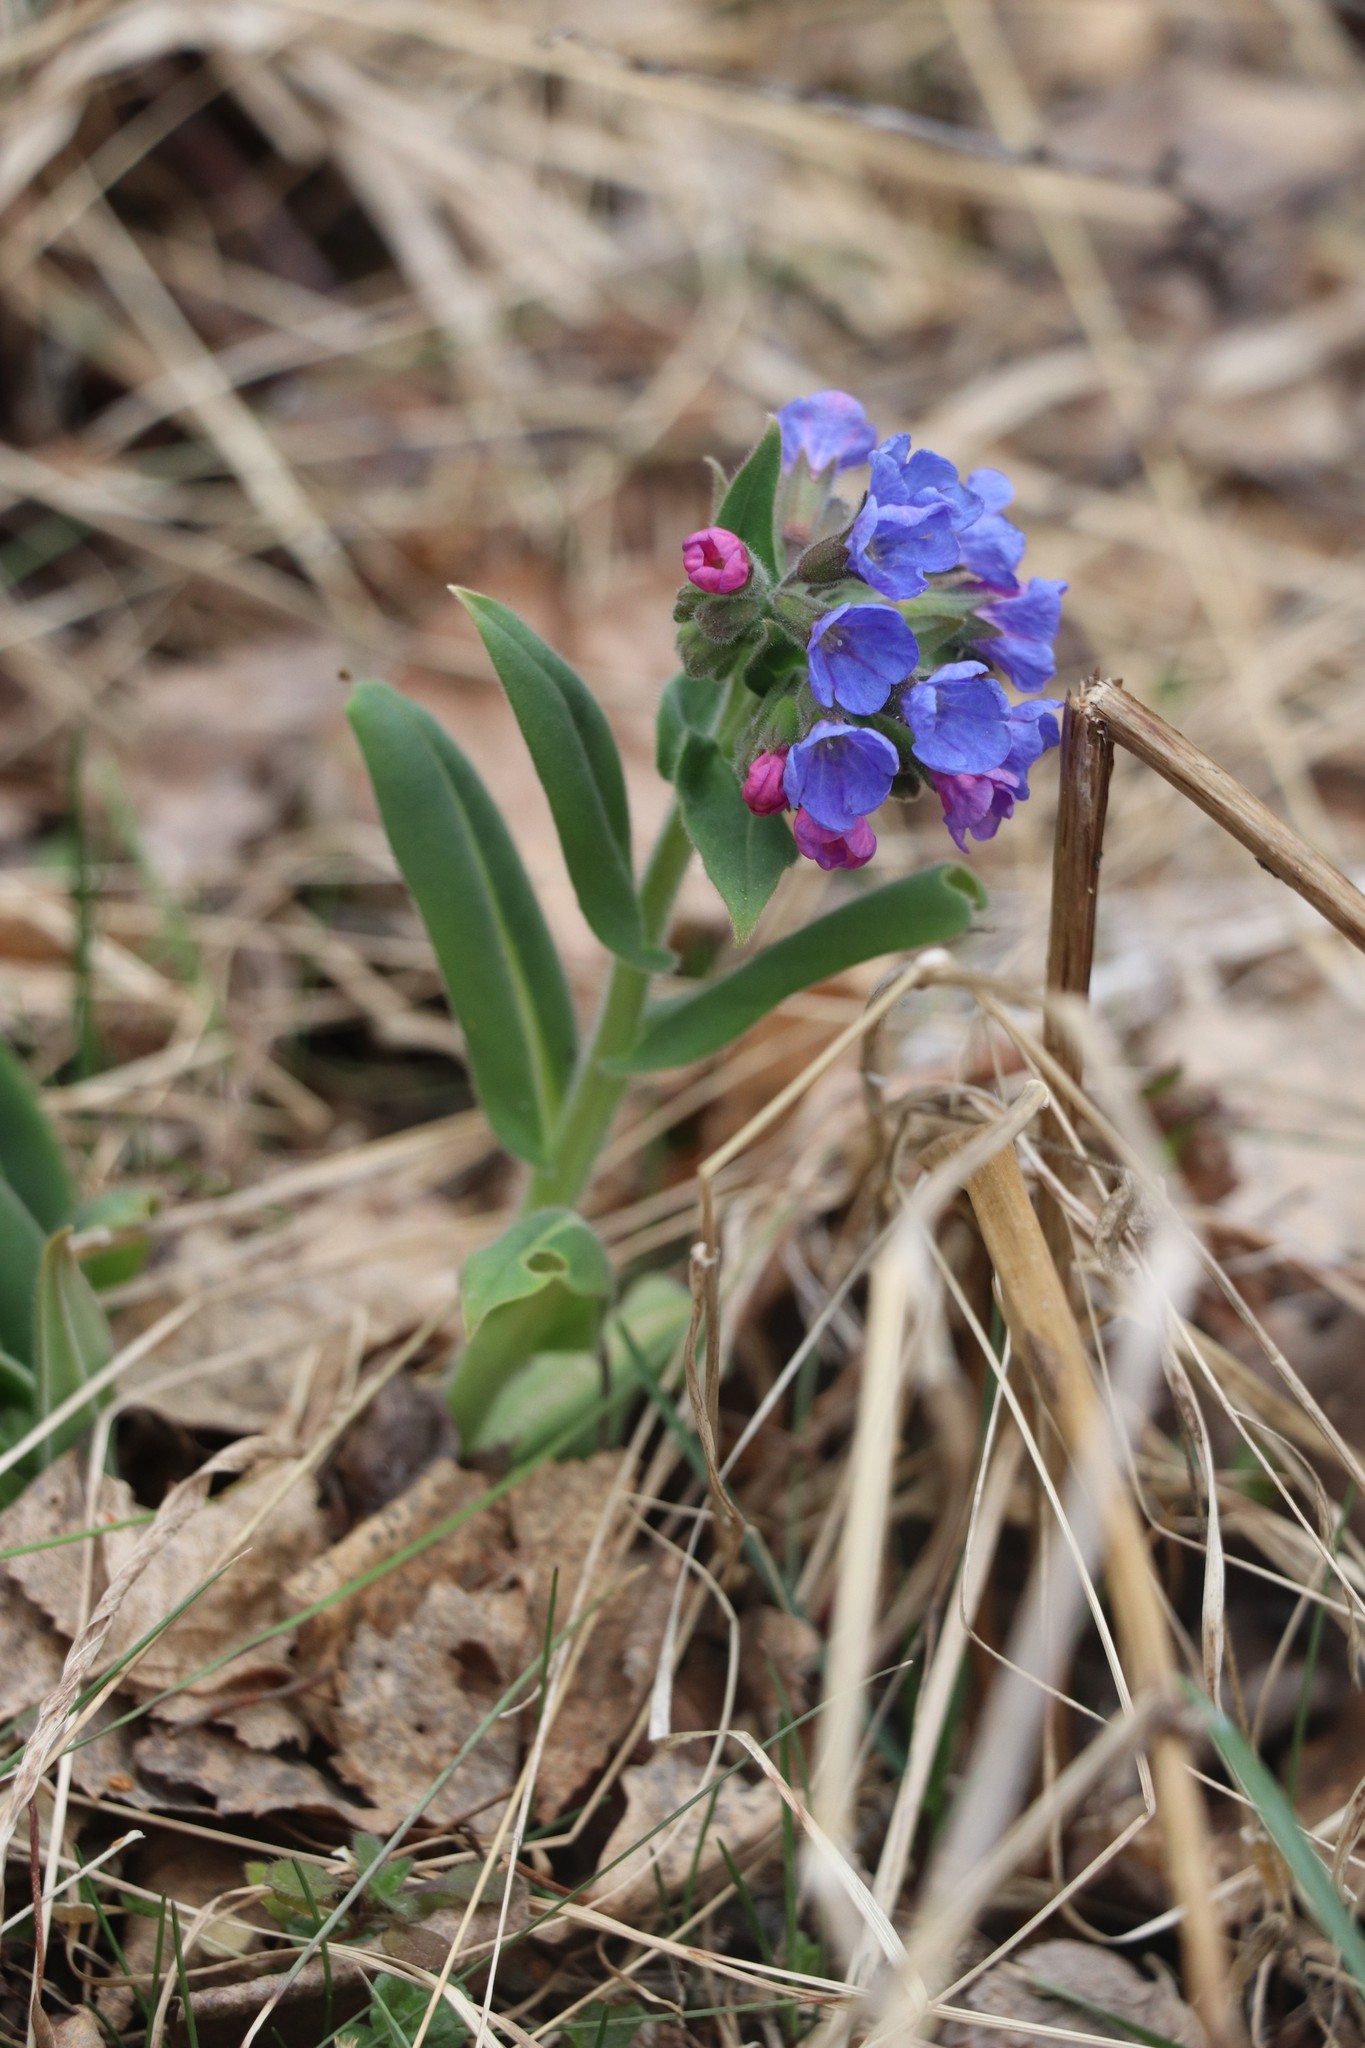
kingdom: Plantae
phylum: Tracheophyta
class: Magnoliopsida
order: Boraginales
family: Boraginaceae
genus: Pulmonaria
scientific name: Pulmonaria mollis
